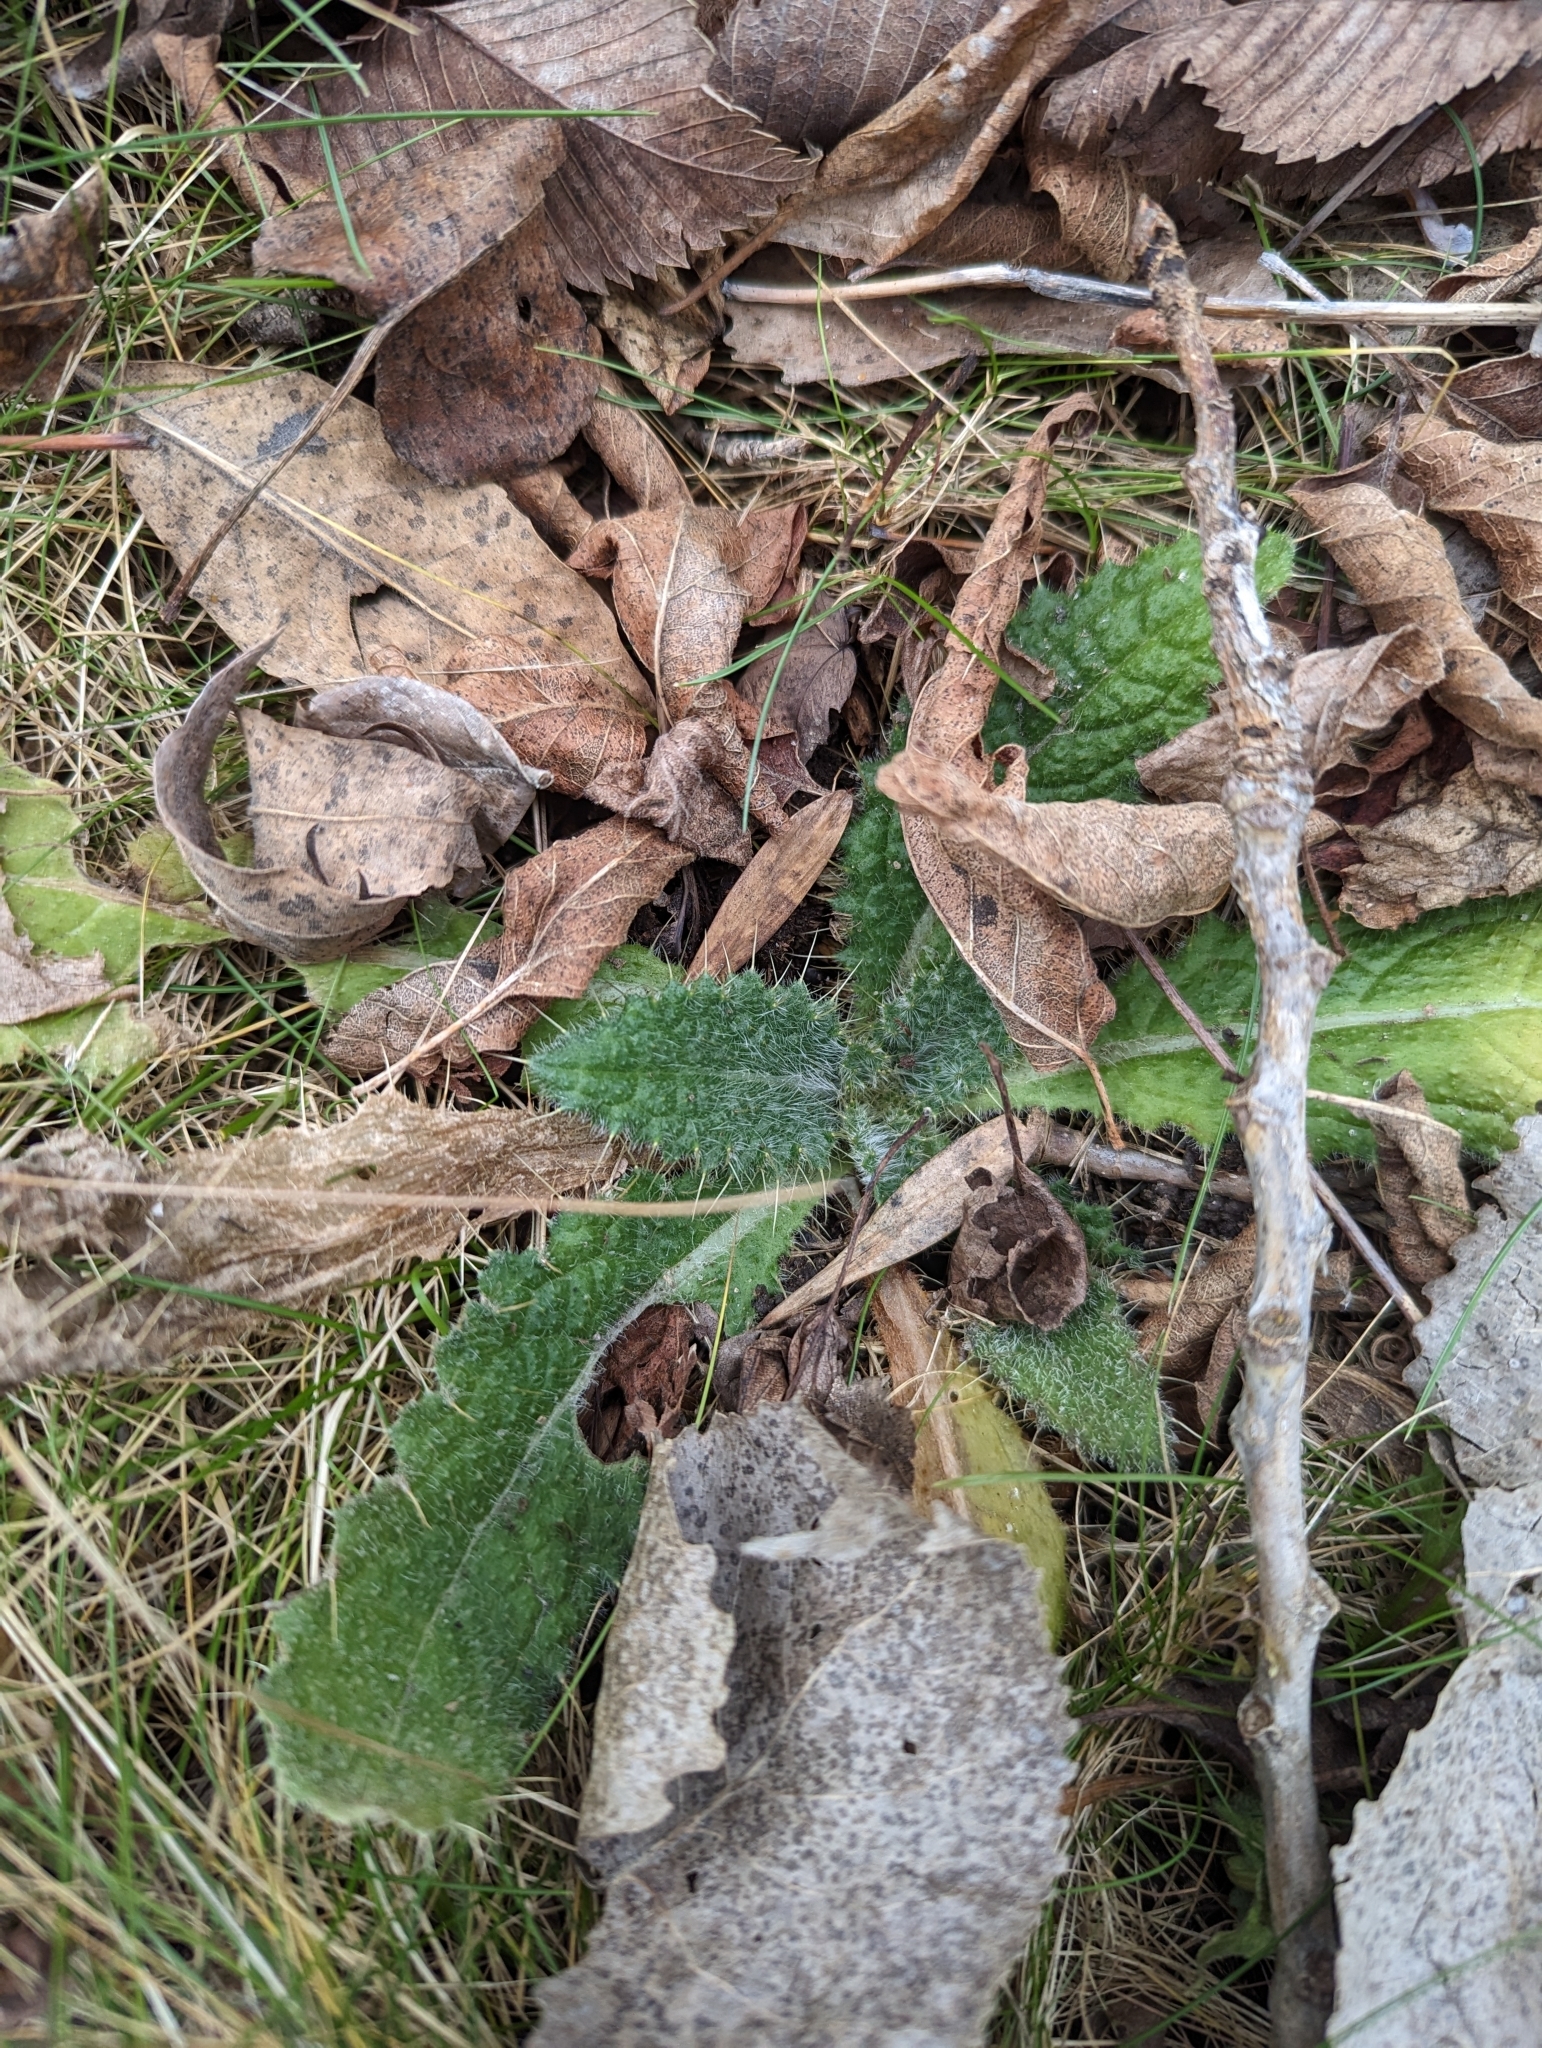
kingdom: Plantae
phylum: Tracheophyta
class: Magnoliopsida
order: Asterales
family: Asteraceae
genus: Cirsium
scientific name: Cirsium vulgare
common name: Bull thistle
